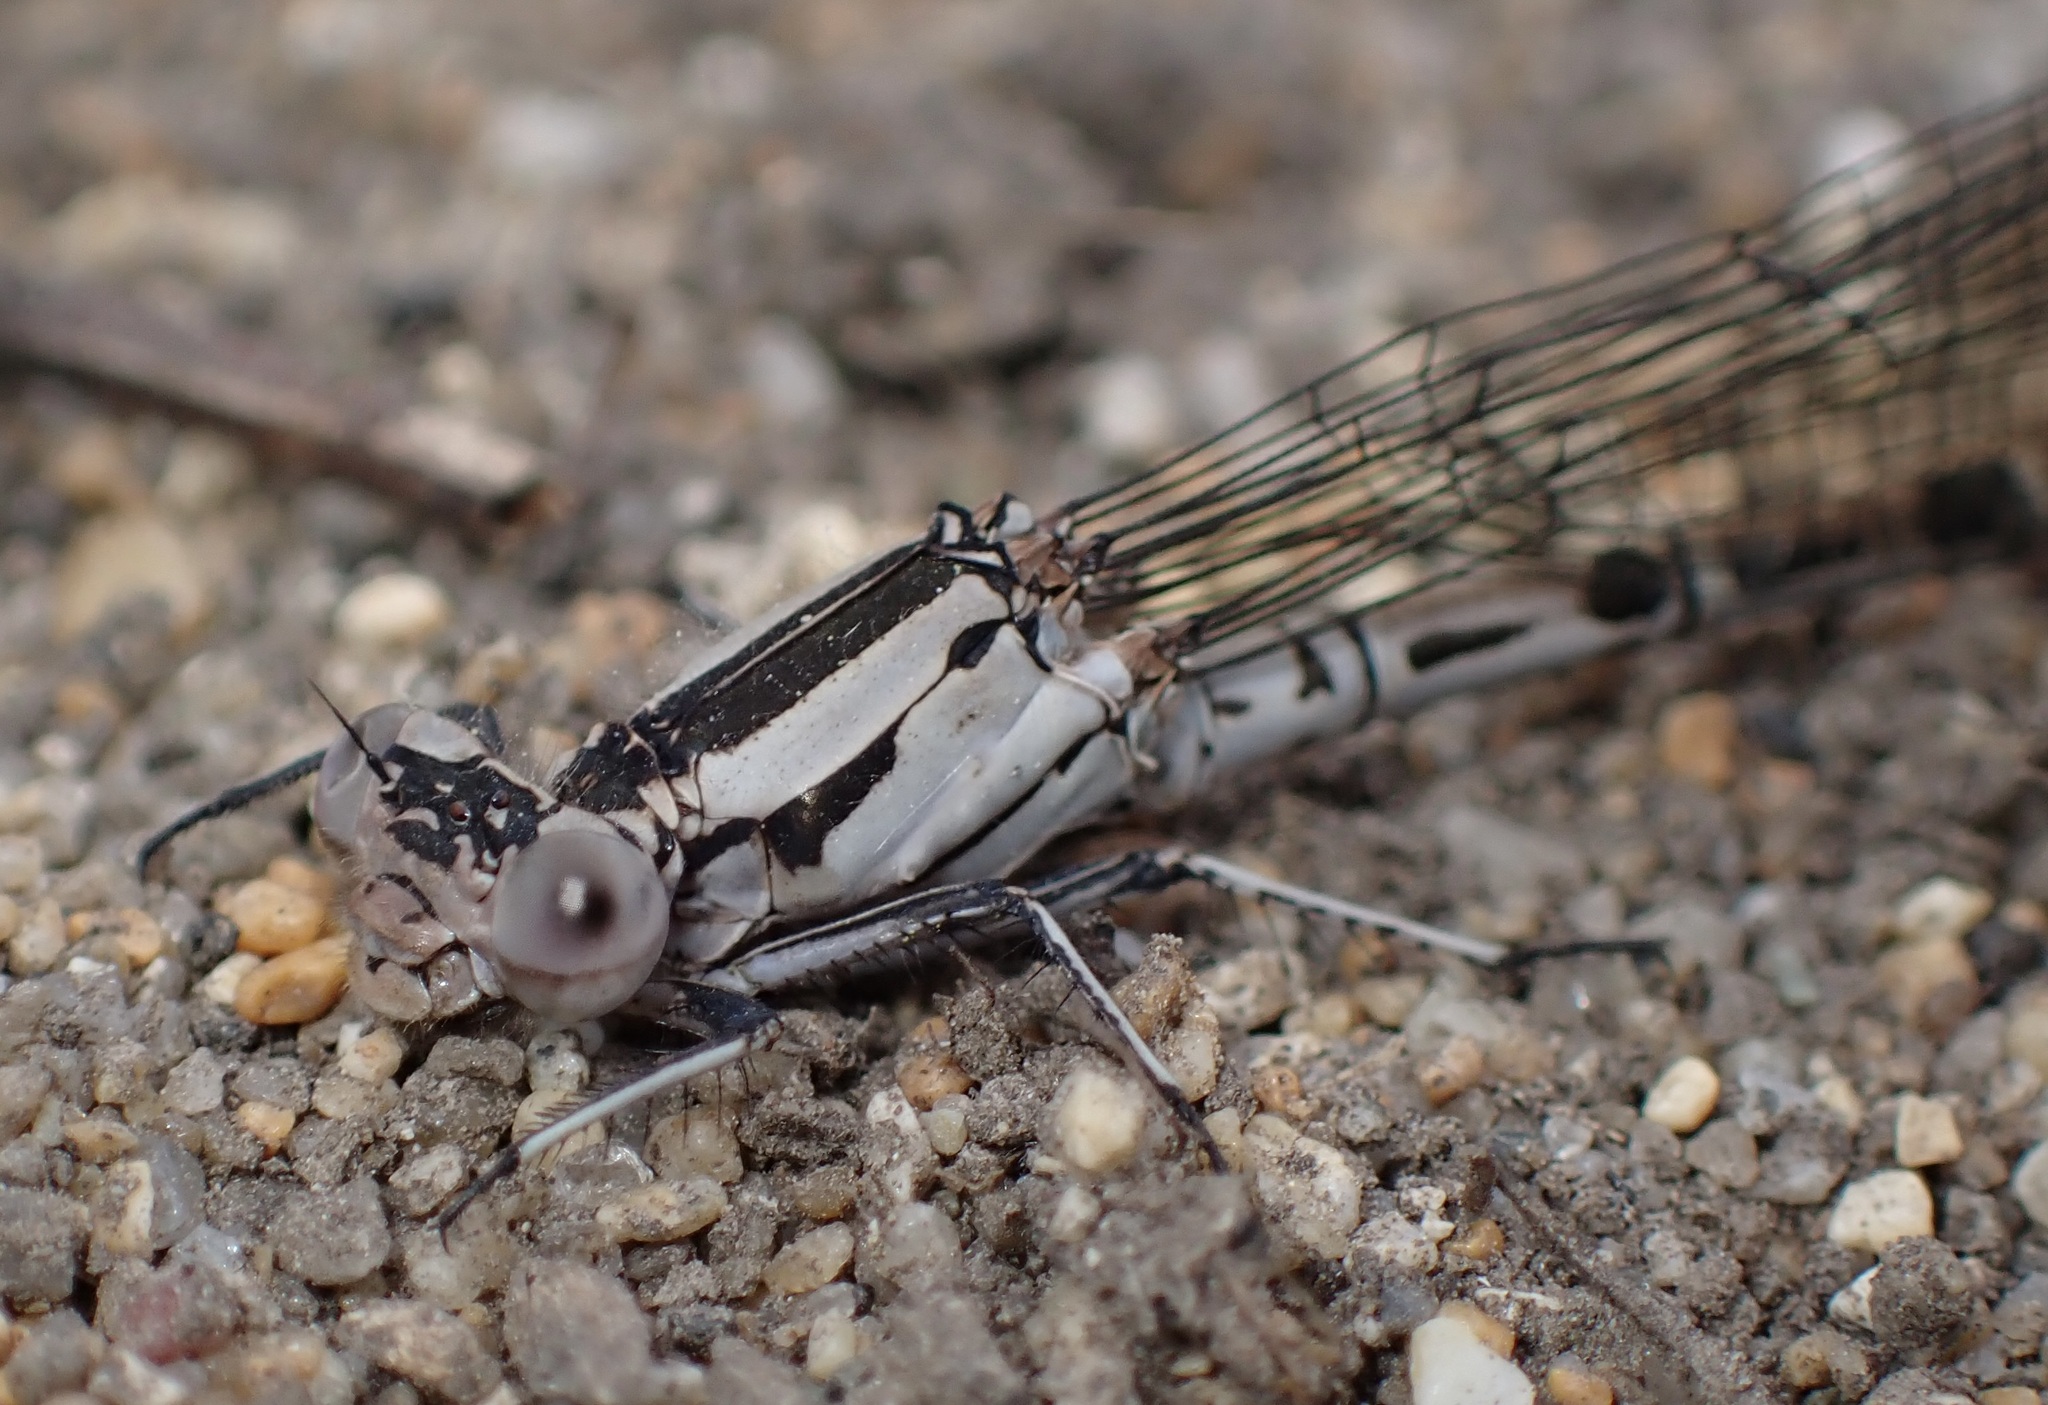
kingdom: Animalia
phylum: Arthropoda
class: Insecta
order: Odonata
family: Coenagrionidae
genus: Argia
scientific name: Argia vivida
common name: Vivid dancer
